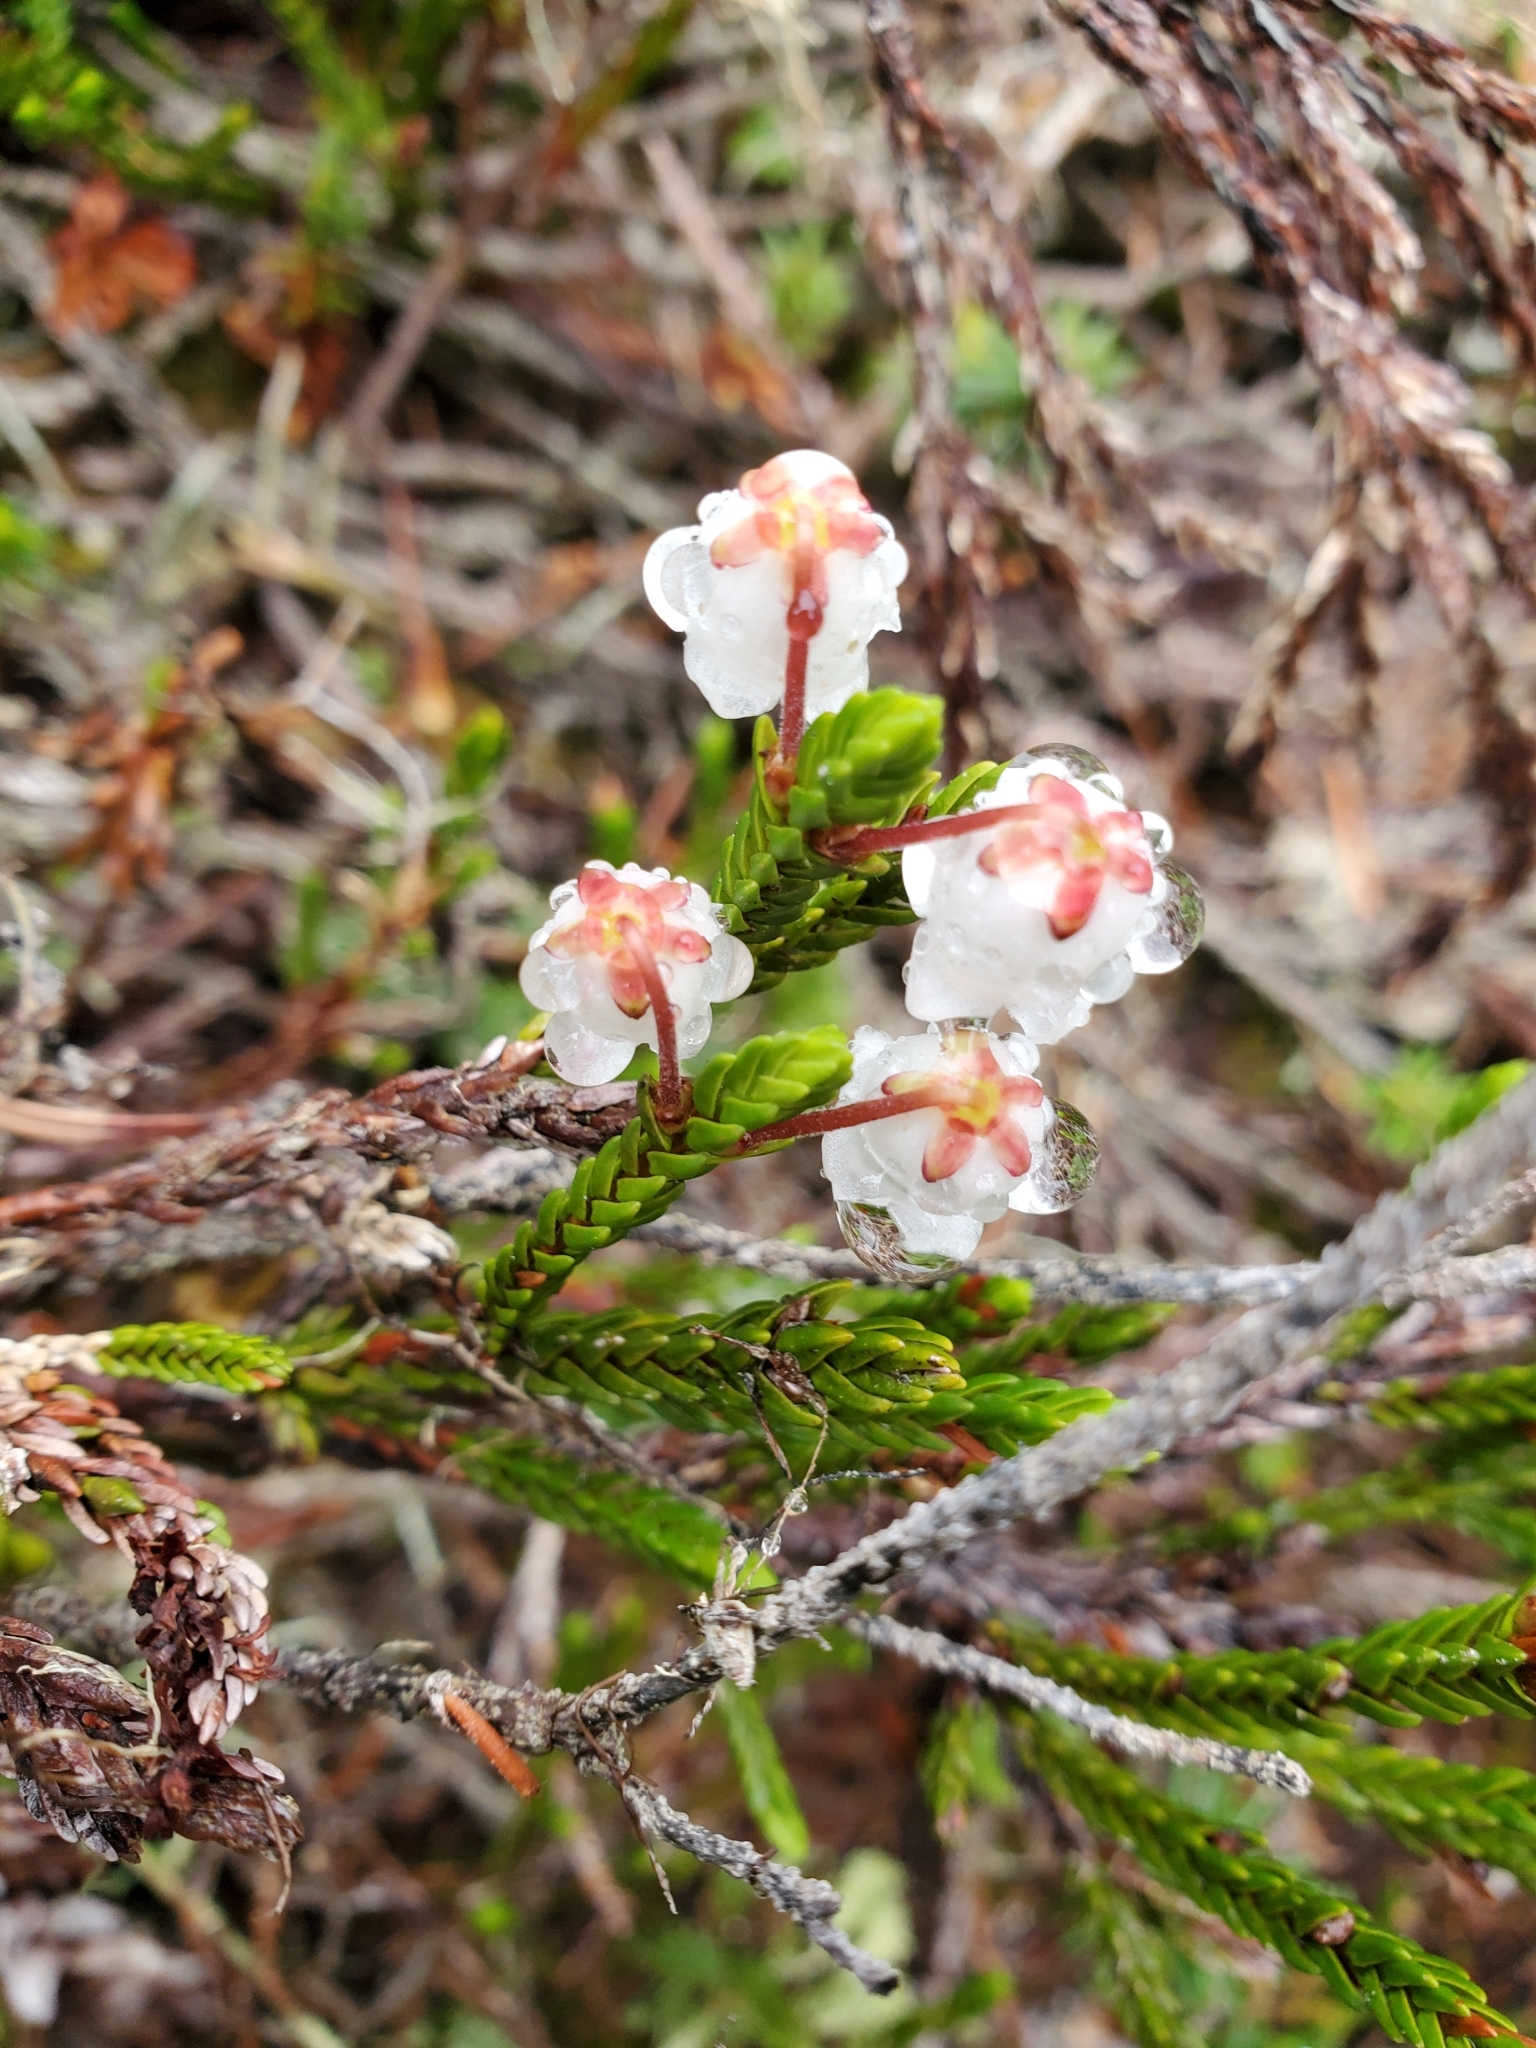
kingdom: Plantae
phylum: Tracheophyta
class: Magnoliopsida
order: Ericales
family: Ericaceae
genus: Cassiope
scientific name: Cassiope mertensiana
